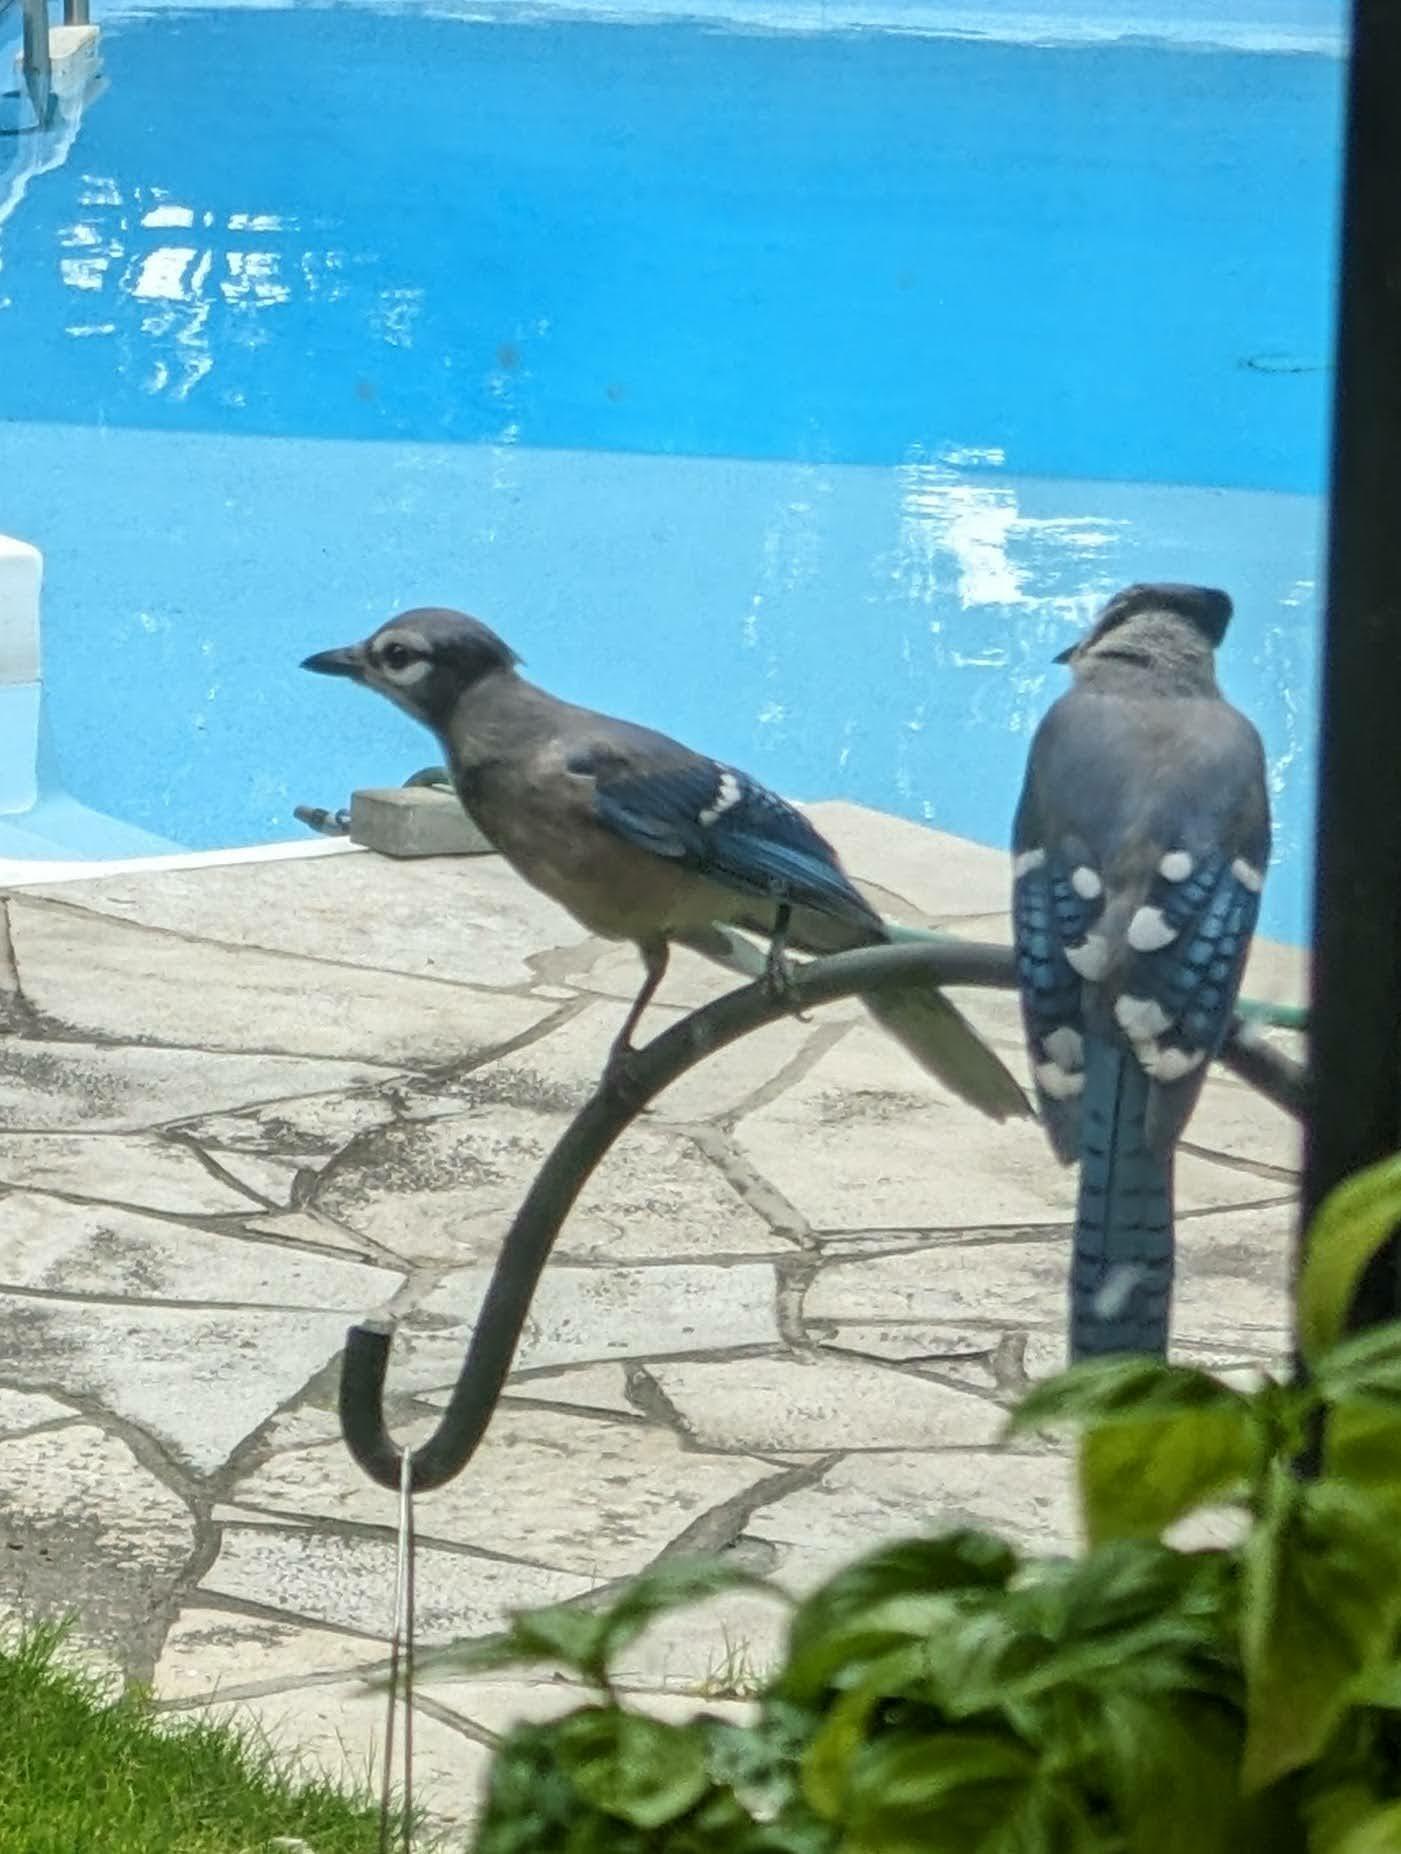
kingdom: Animalia
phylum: Chordata
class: Aves
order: Passeriformes
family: Corvidae
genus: Cyanocitta
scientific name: Cyanocitta cristata
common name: Blue jay
